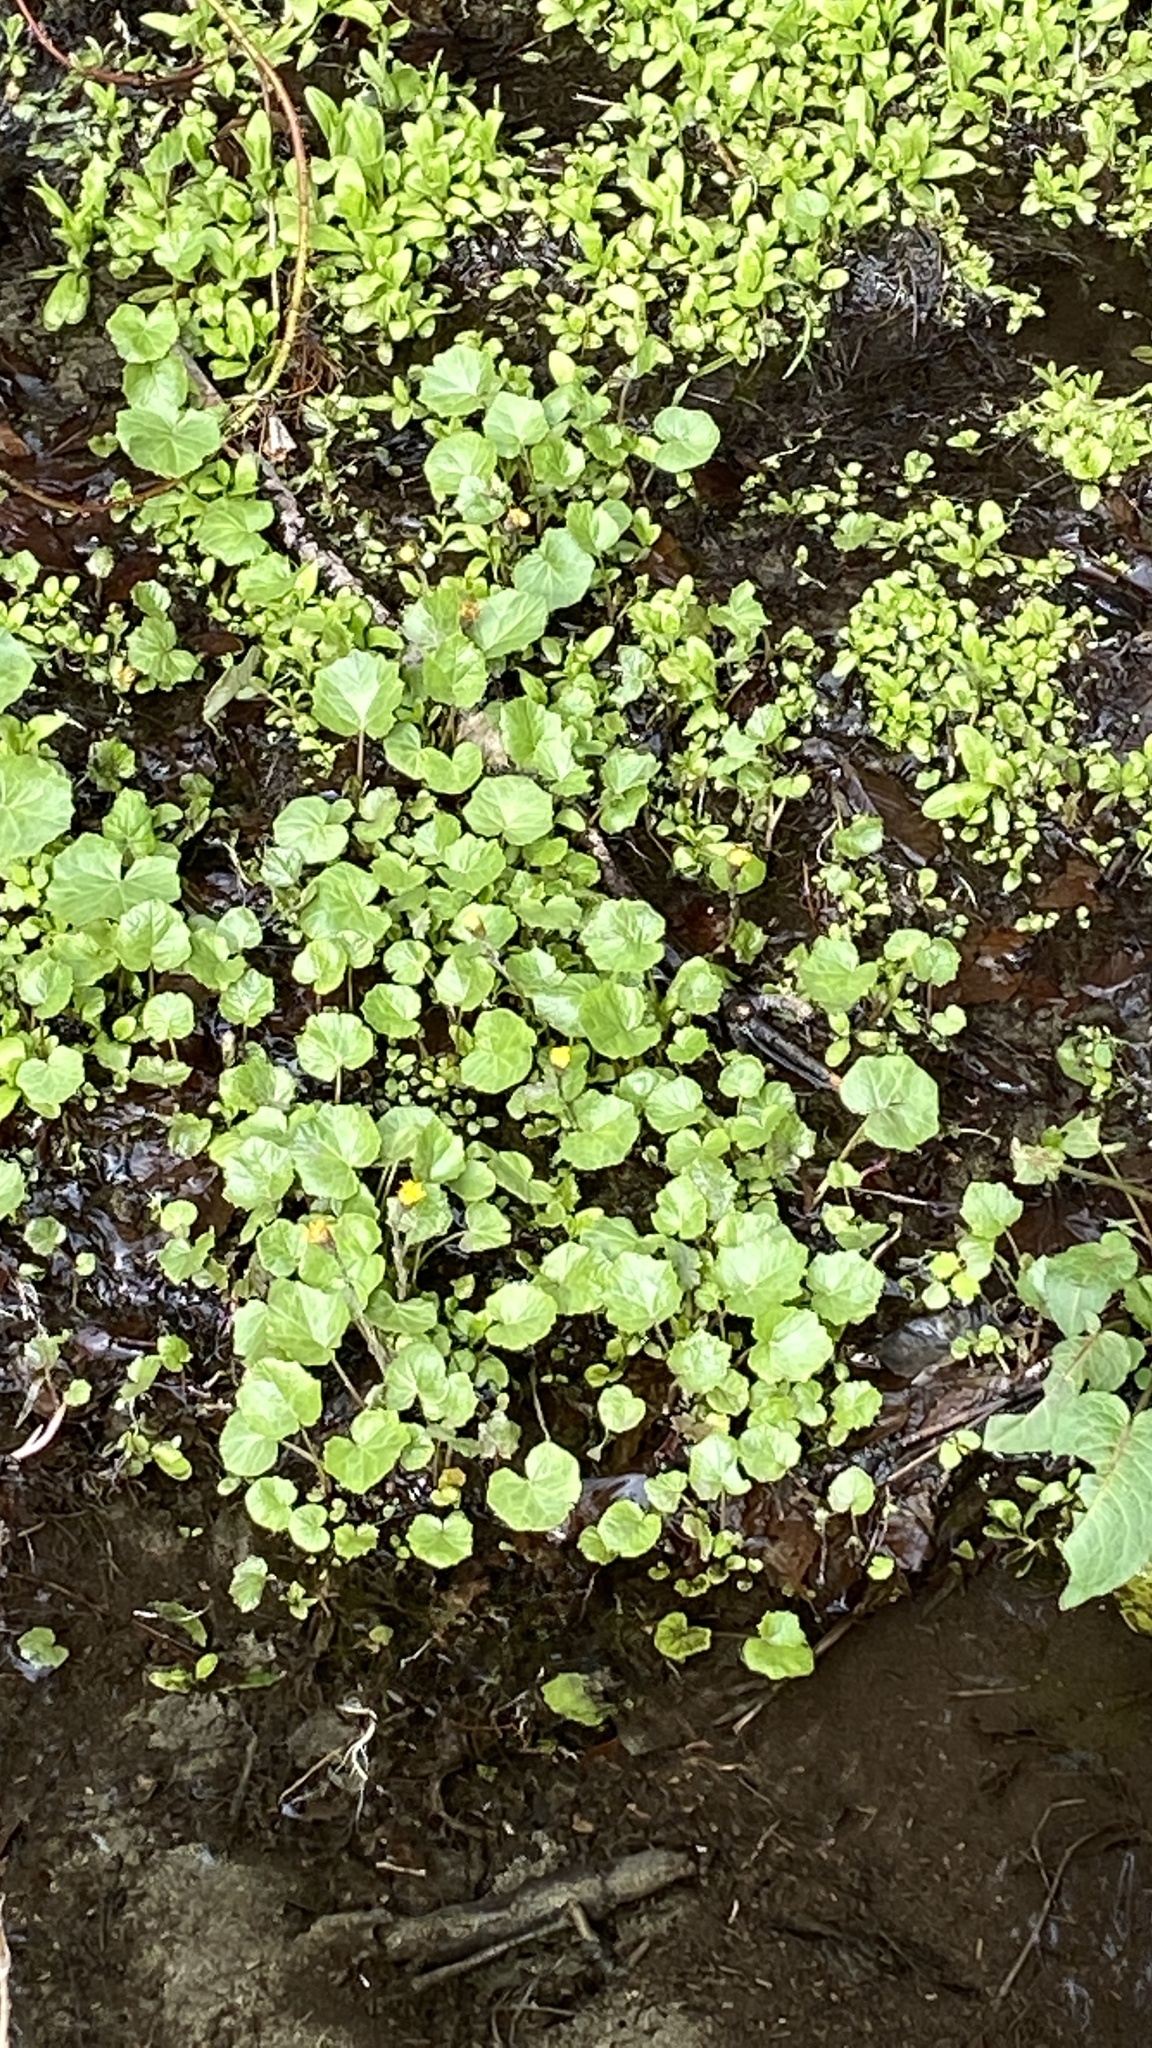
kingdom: Plantae
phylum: Tracheophyta
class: Magnoliopsida
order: Asterales
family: Asteraceae
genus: Tussilago
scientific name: Tussilago farfara
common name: Coltsfoot
